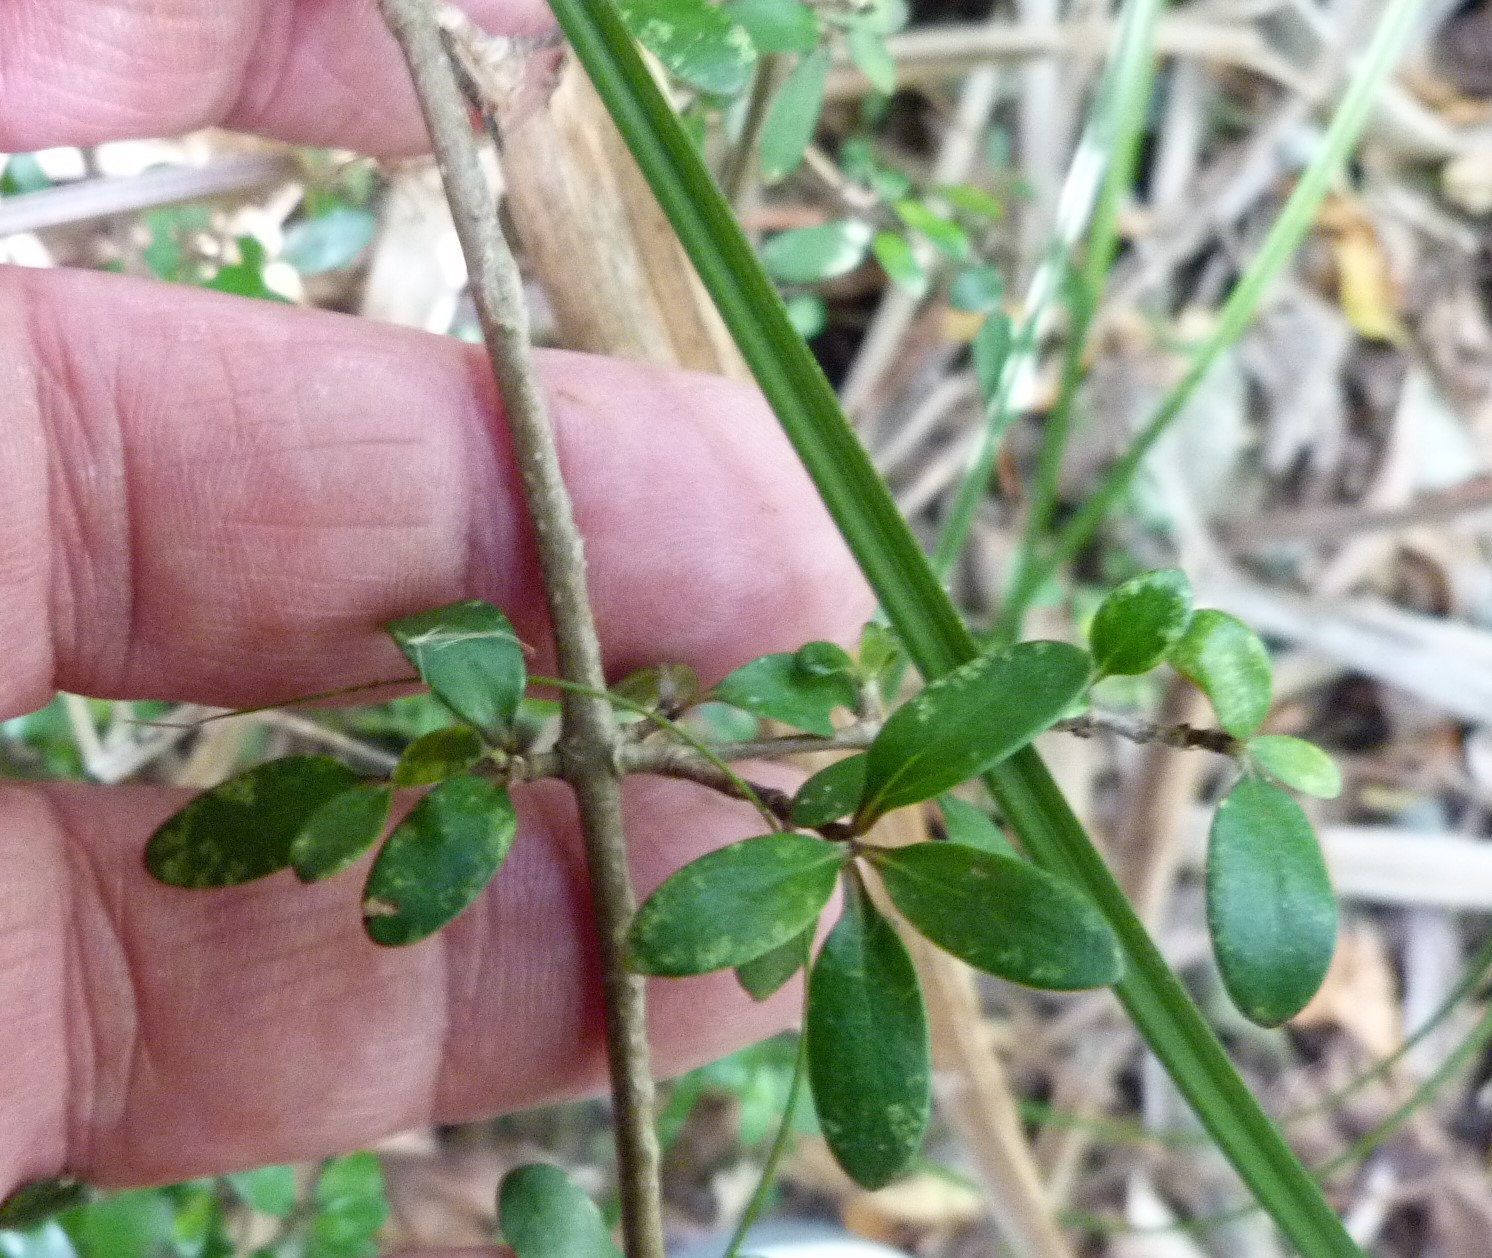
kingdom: Plantae
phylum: Tracheophyta
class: Magnoliopsida
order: Gentianales
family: Rubiaceae
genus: Coprosma
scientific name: Coprosma propinqua
